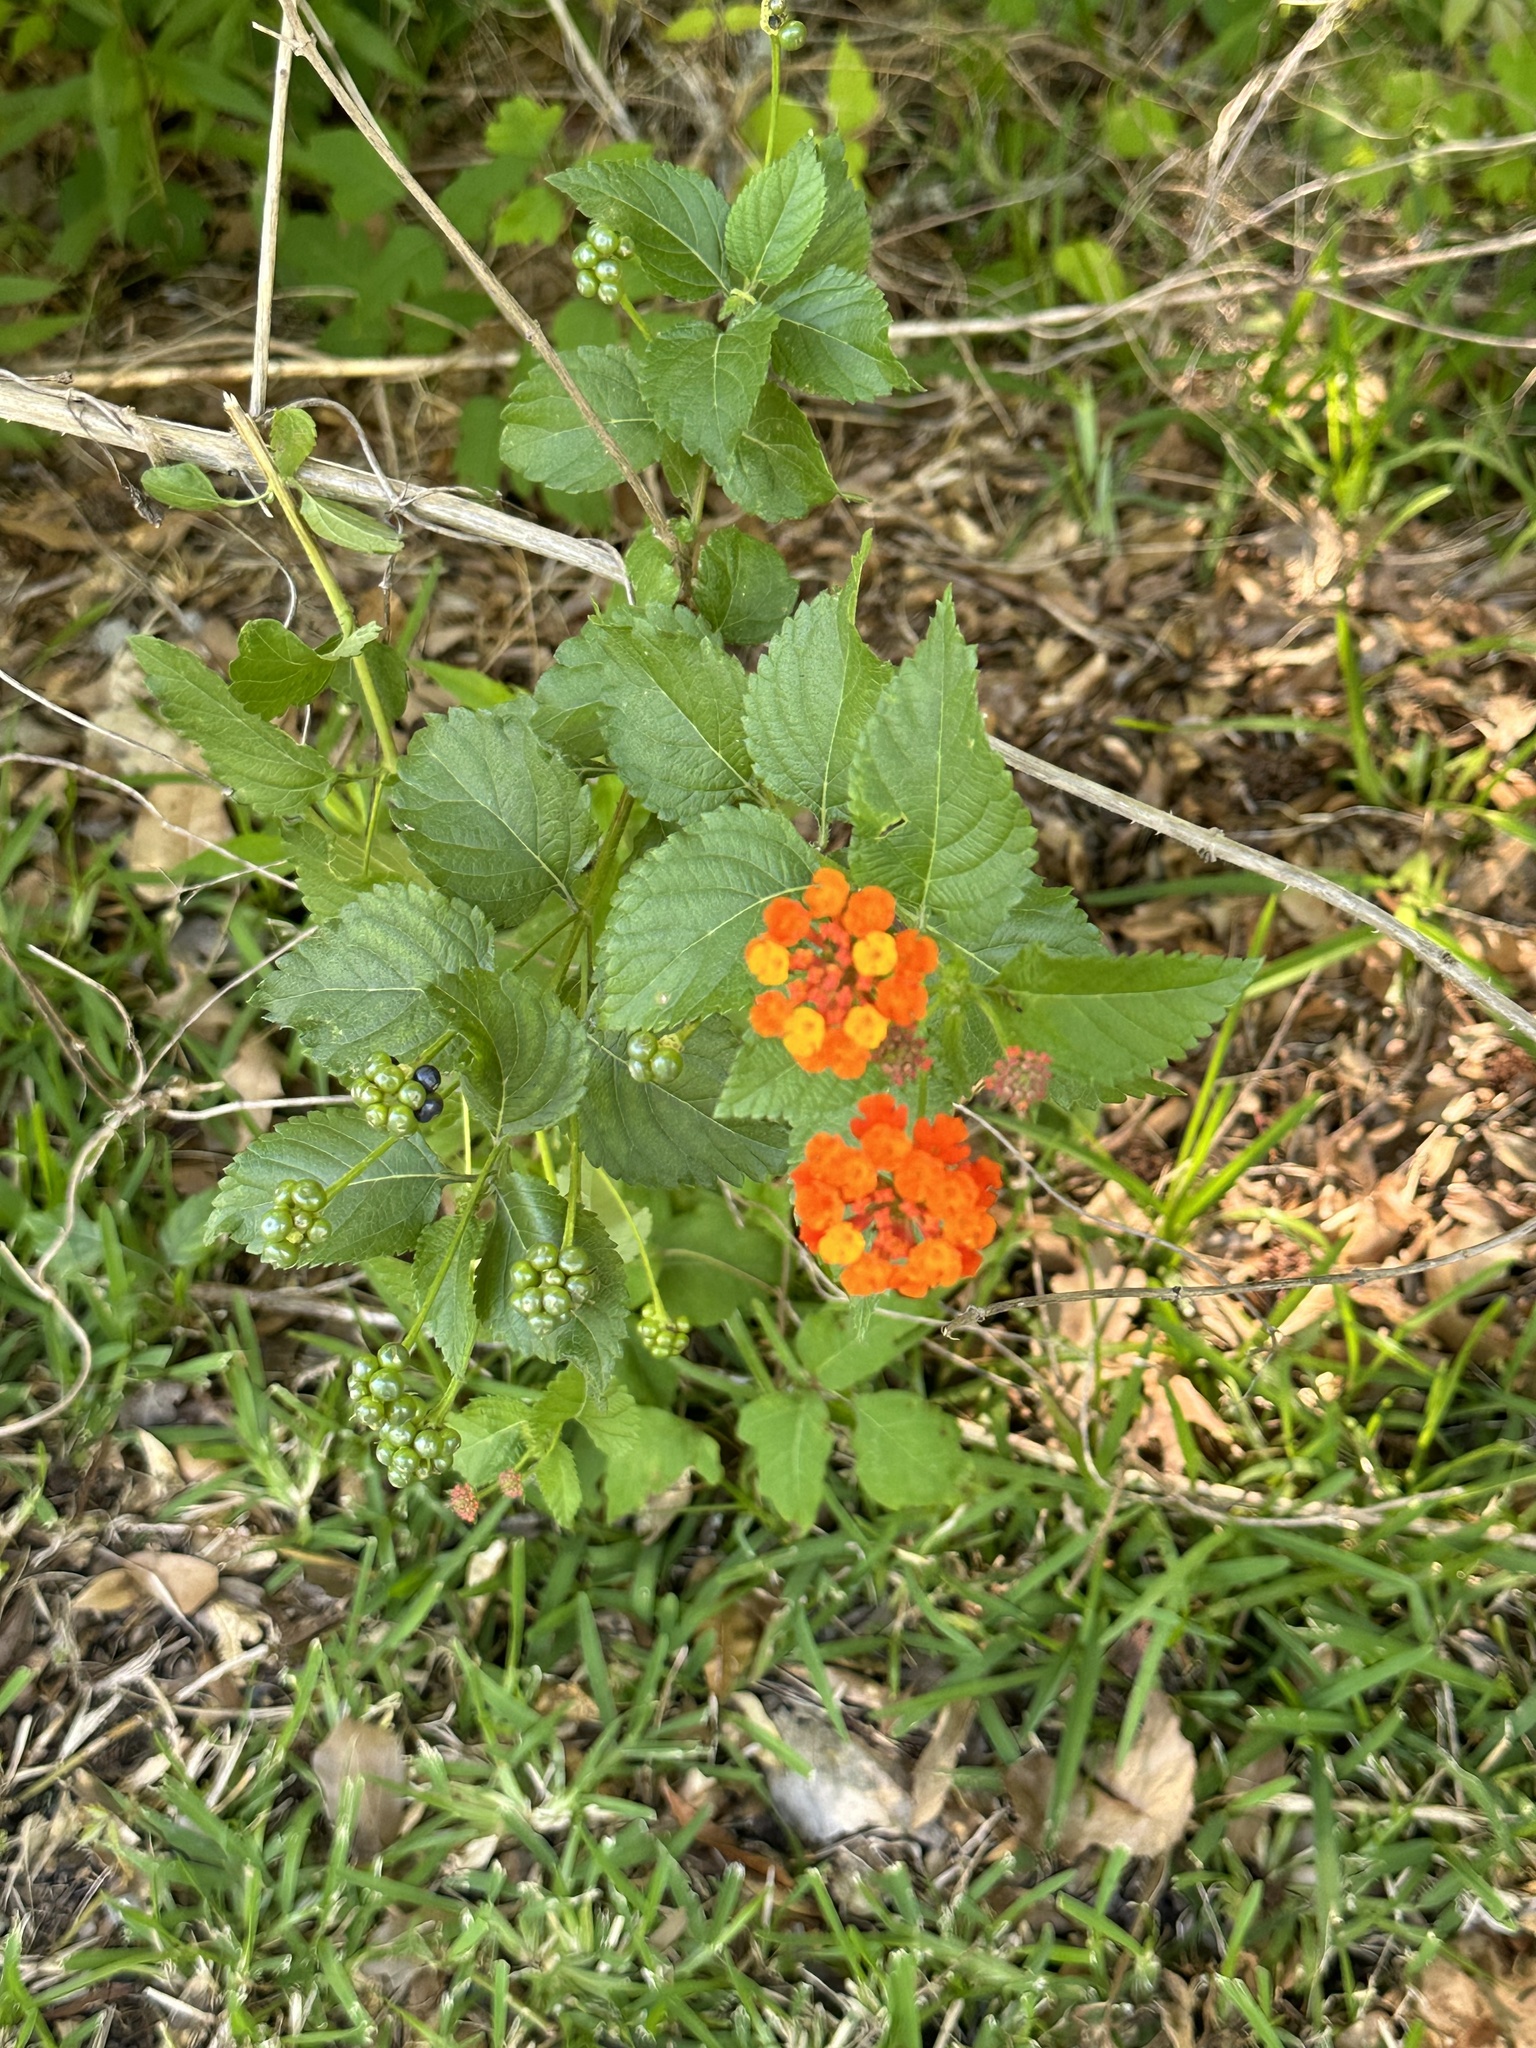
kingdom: Plantae
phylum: Tracheophyta
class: Magnoliopsida
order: Lamiales
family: Verbenaceae
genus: Lantana
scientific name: Lantana camara
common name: Lantana
